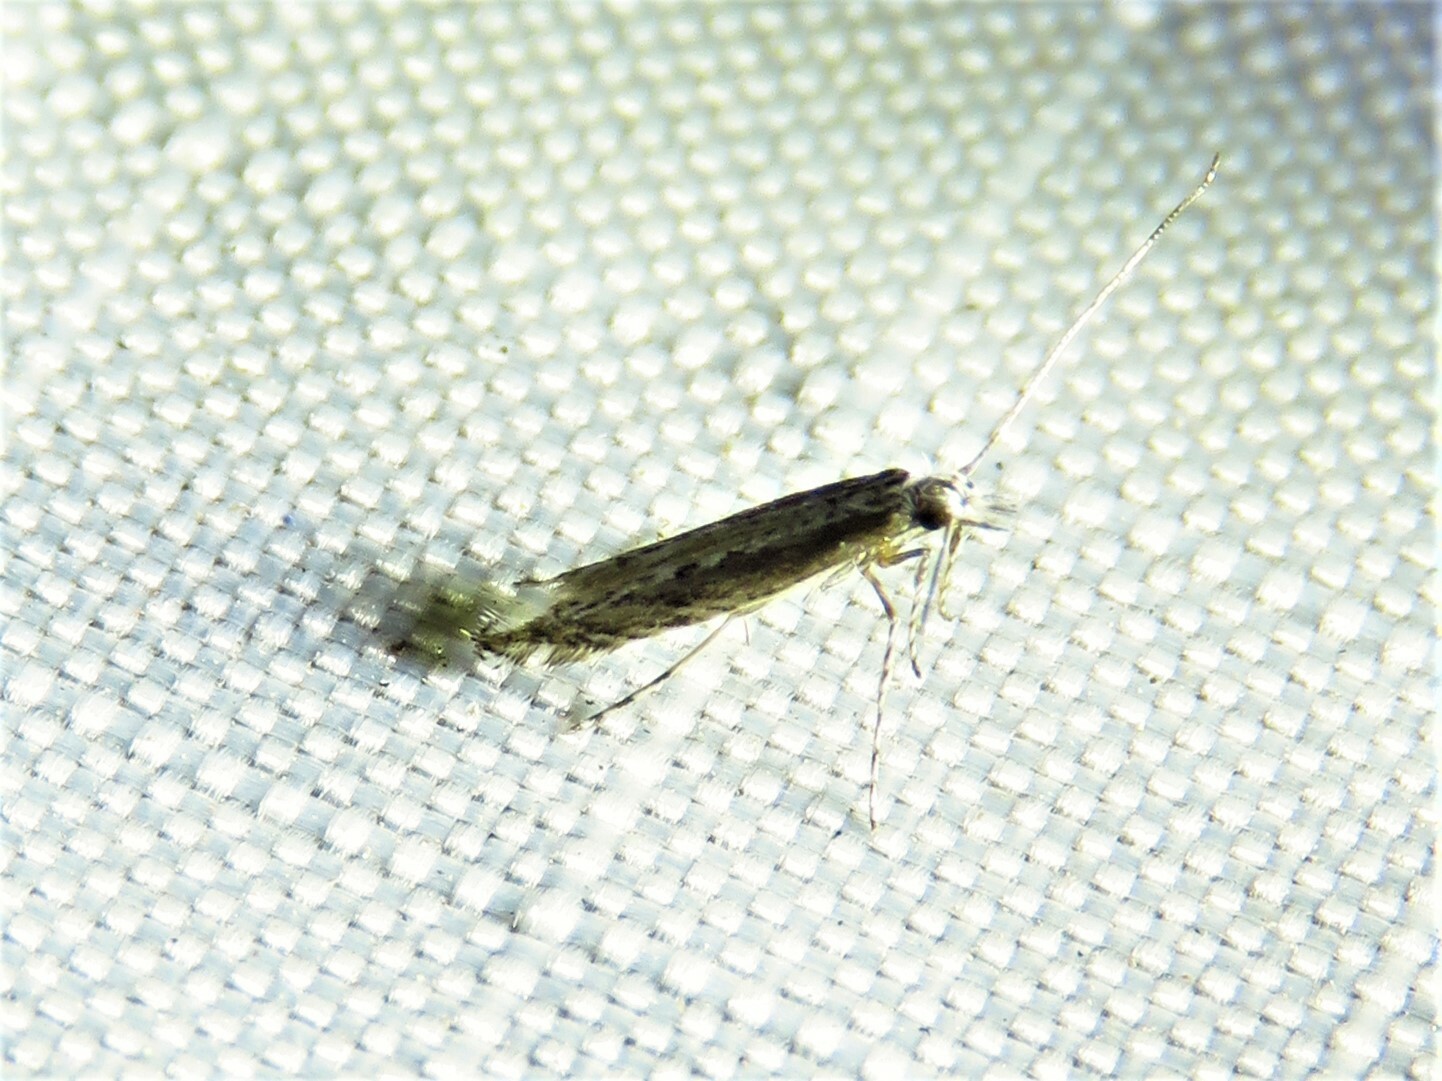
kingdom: Plantae
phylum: Rhodophyta
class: Florideophyceae
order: Gracilariales
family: Gracilariaceae
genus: Gracilaria
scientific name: Gracilaria
